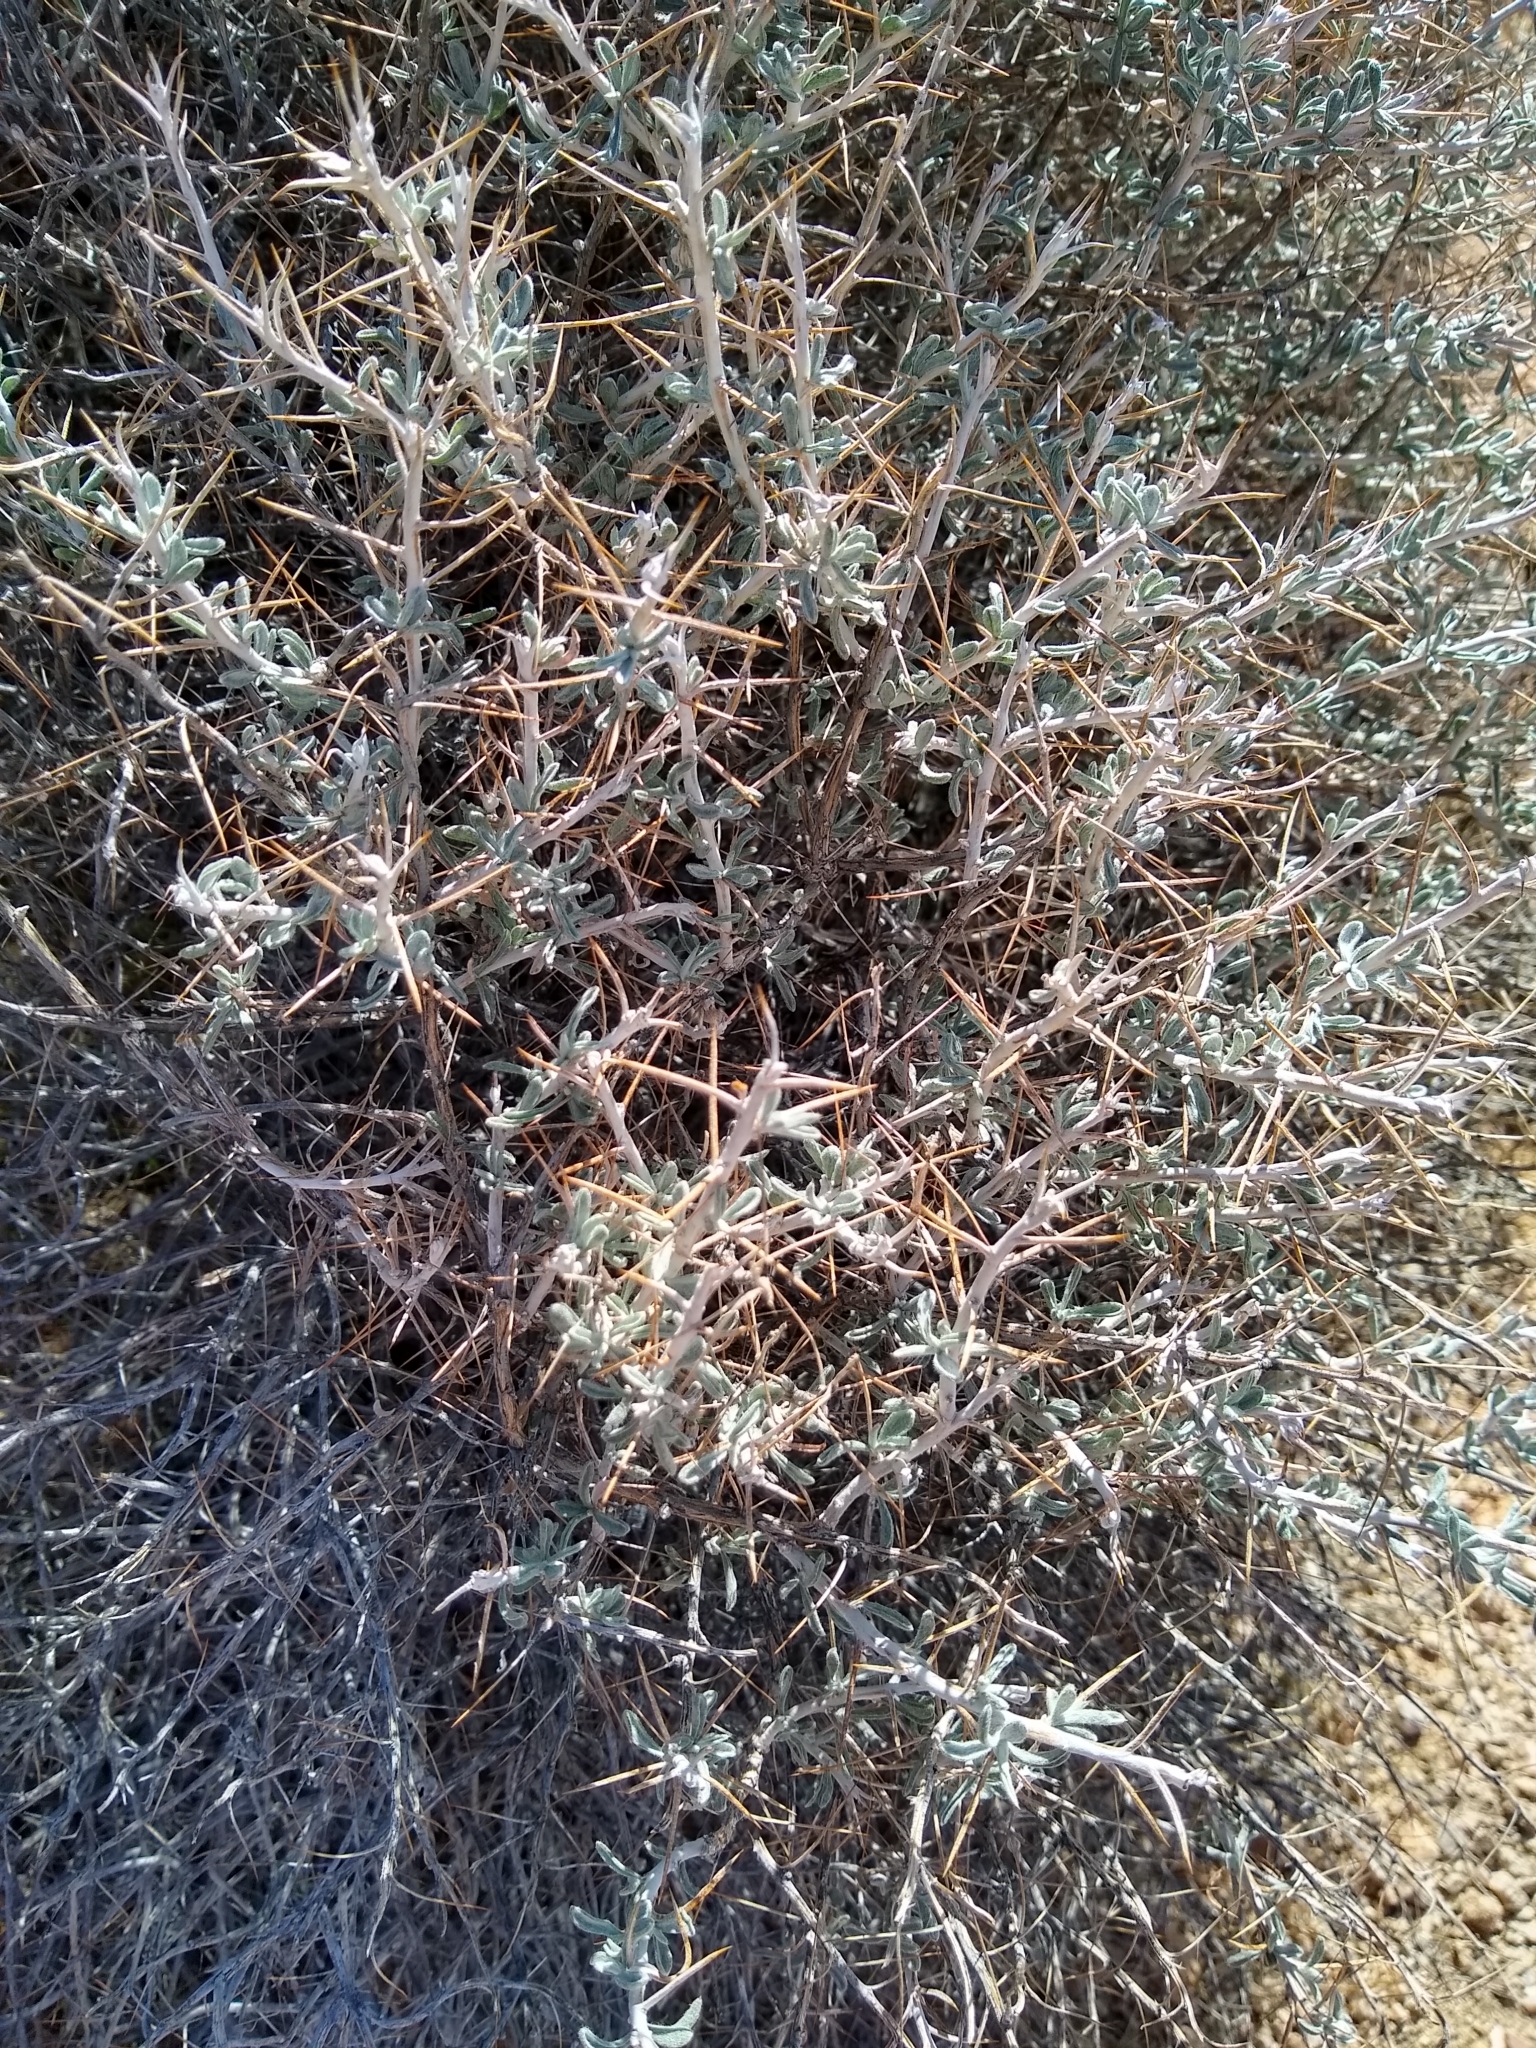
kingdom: Plantae
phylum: Tracheophyta
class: Magnoliopsida
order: Asterales
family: Asteraceae
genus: Tetradymia
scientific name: Tetradymia stenolepis
